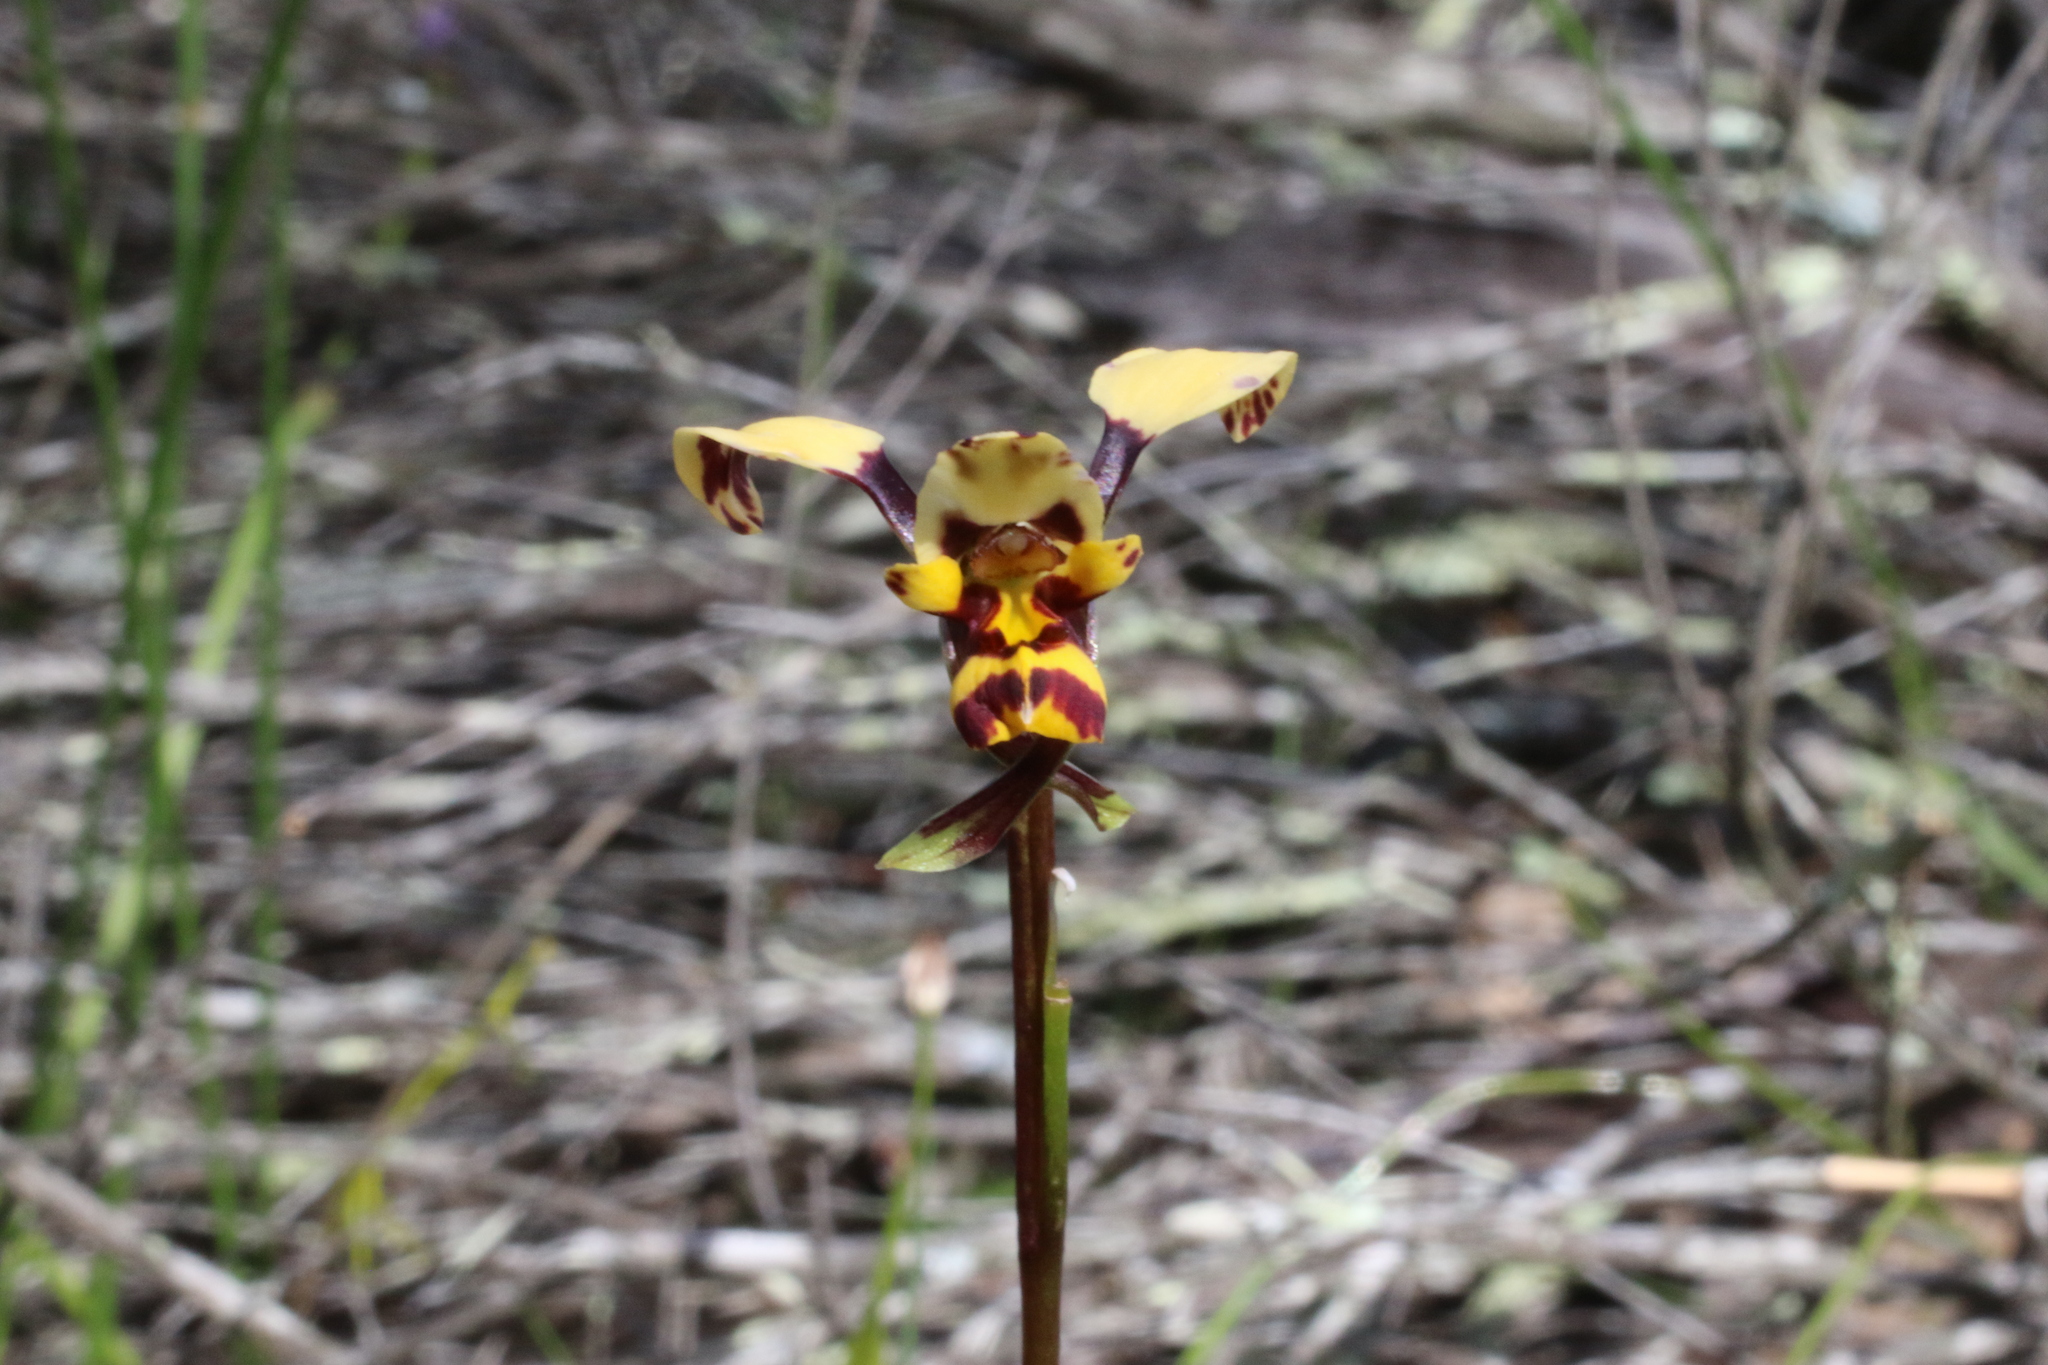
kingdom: Plantae
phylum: Tracheophyta
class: Liliopsida
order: Asparagales
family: Orchidaceae
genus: Diuris
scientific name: Diuris pardina
